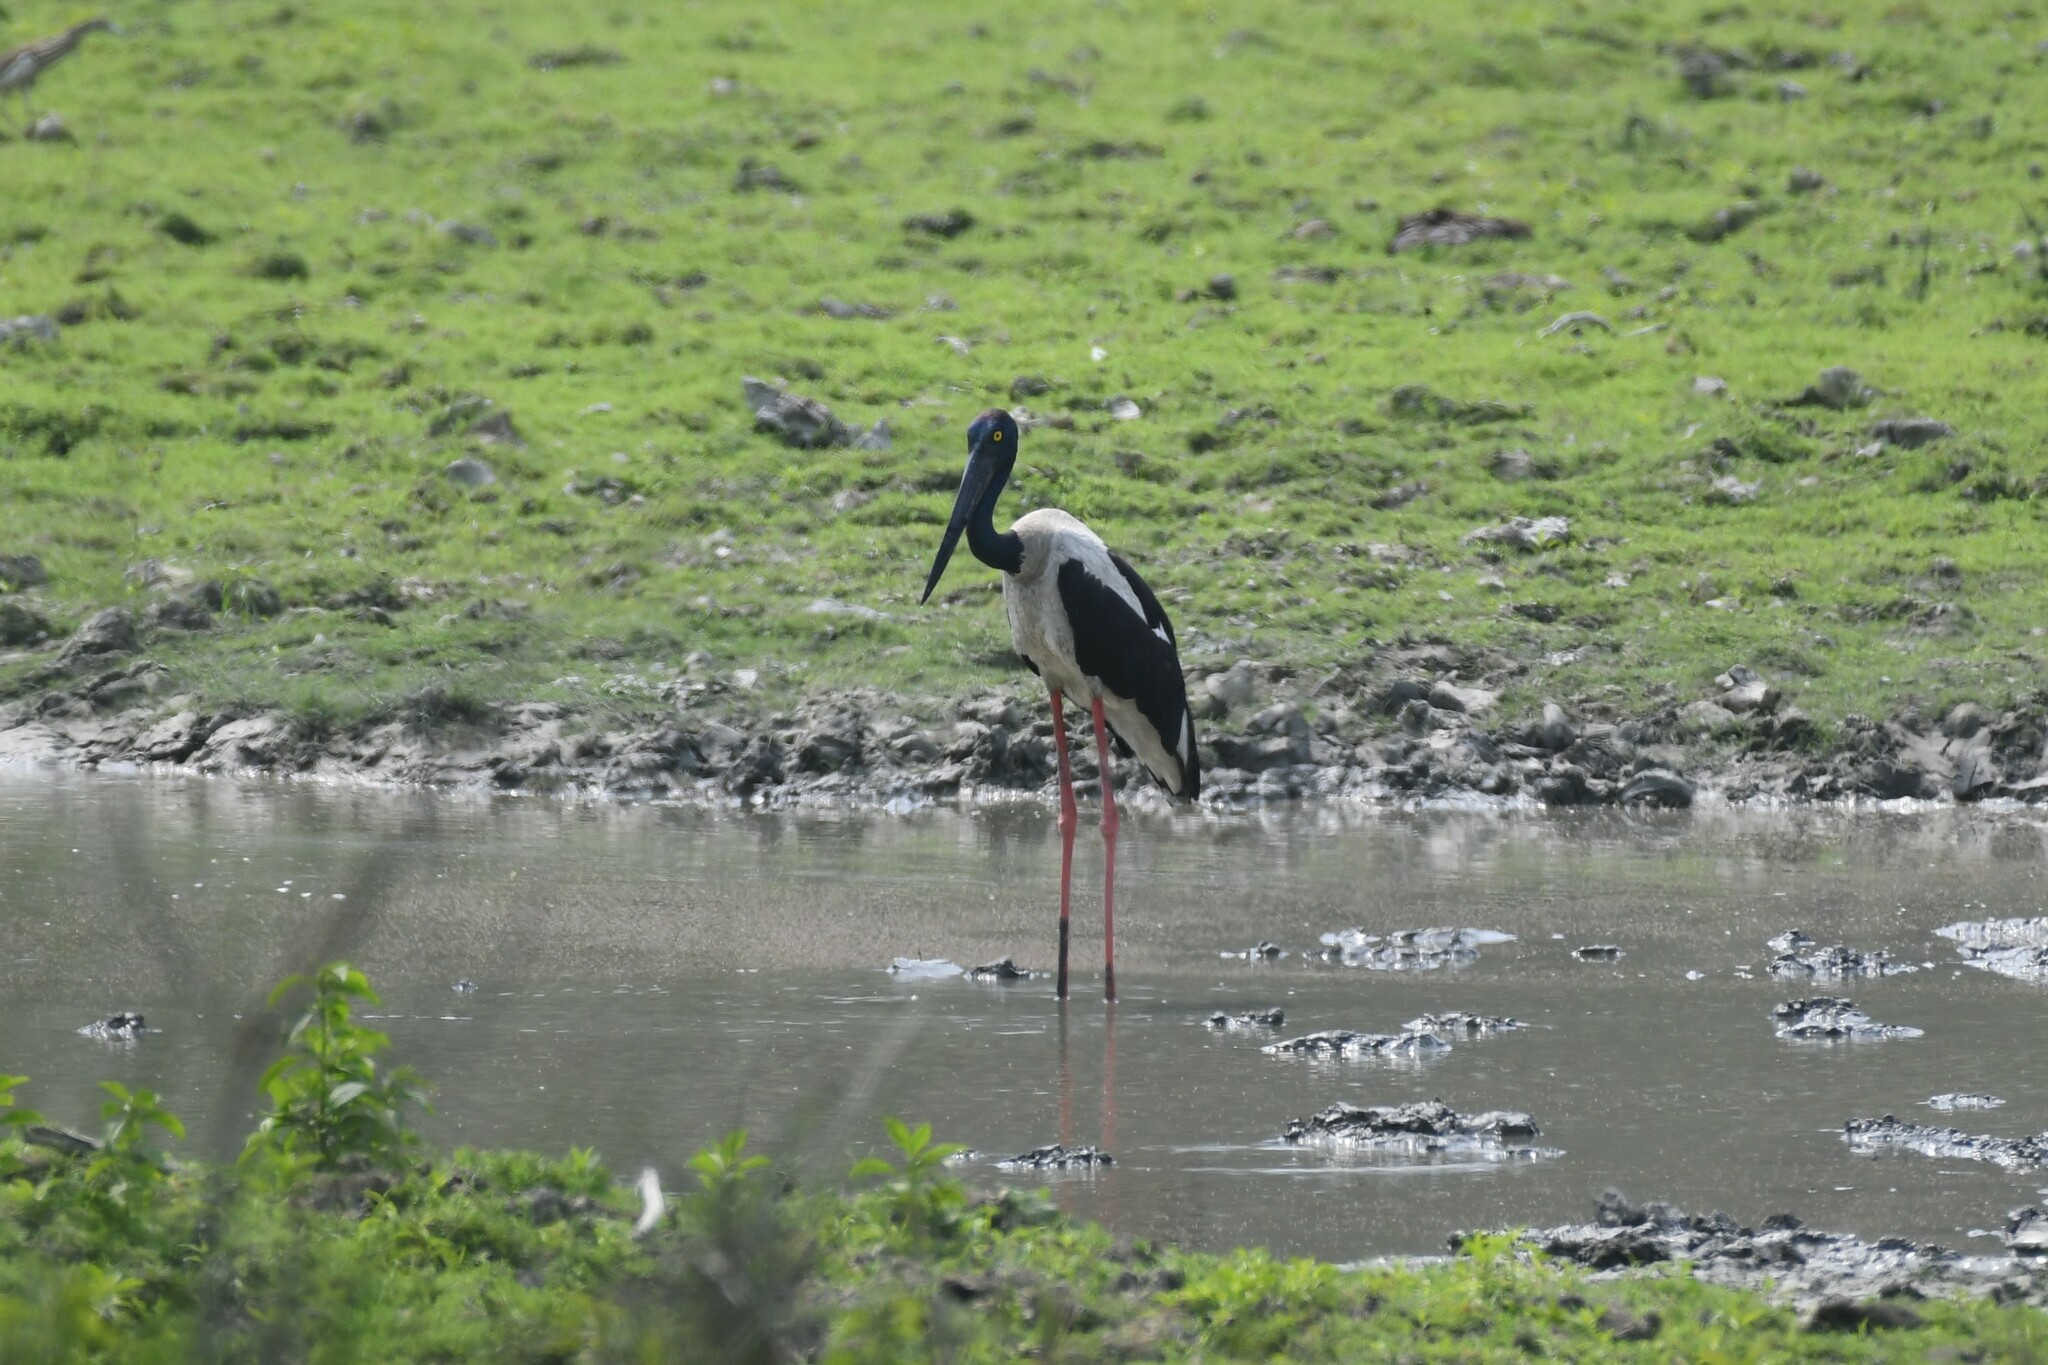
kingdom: Animalia
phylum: Chordata
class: Aves
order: Ciconiiformes
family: Ciconiidae
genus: Ephippiorhynchus
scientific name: Ephippiorhynchus asiaticus
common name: Black-necked stork
